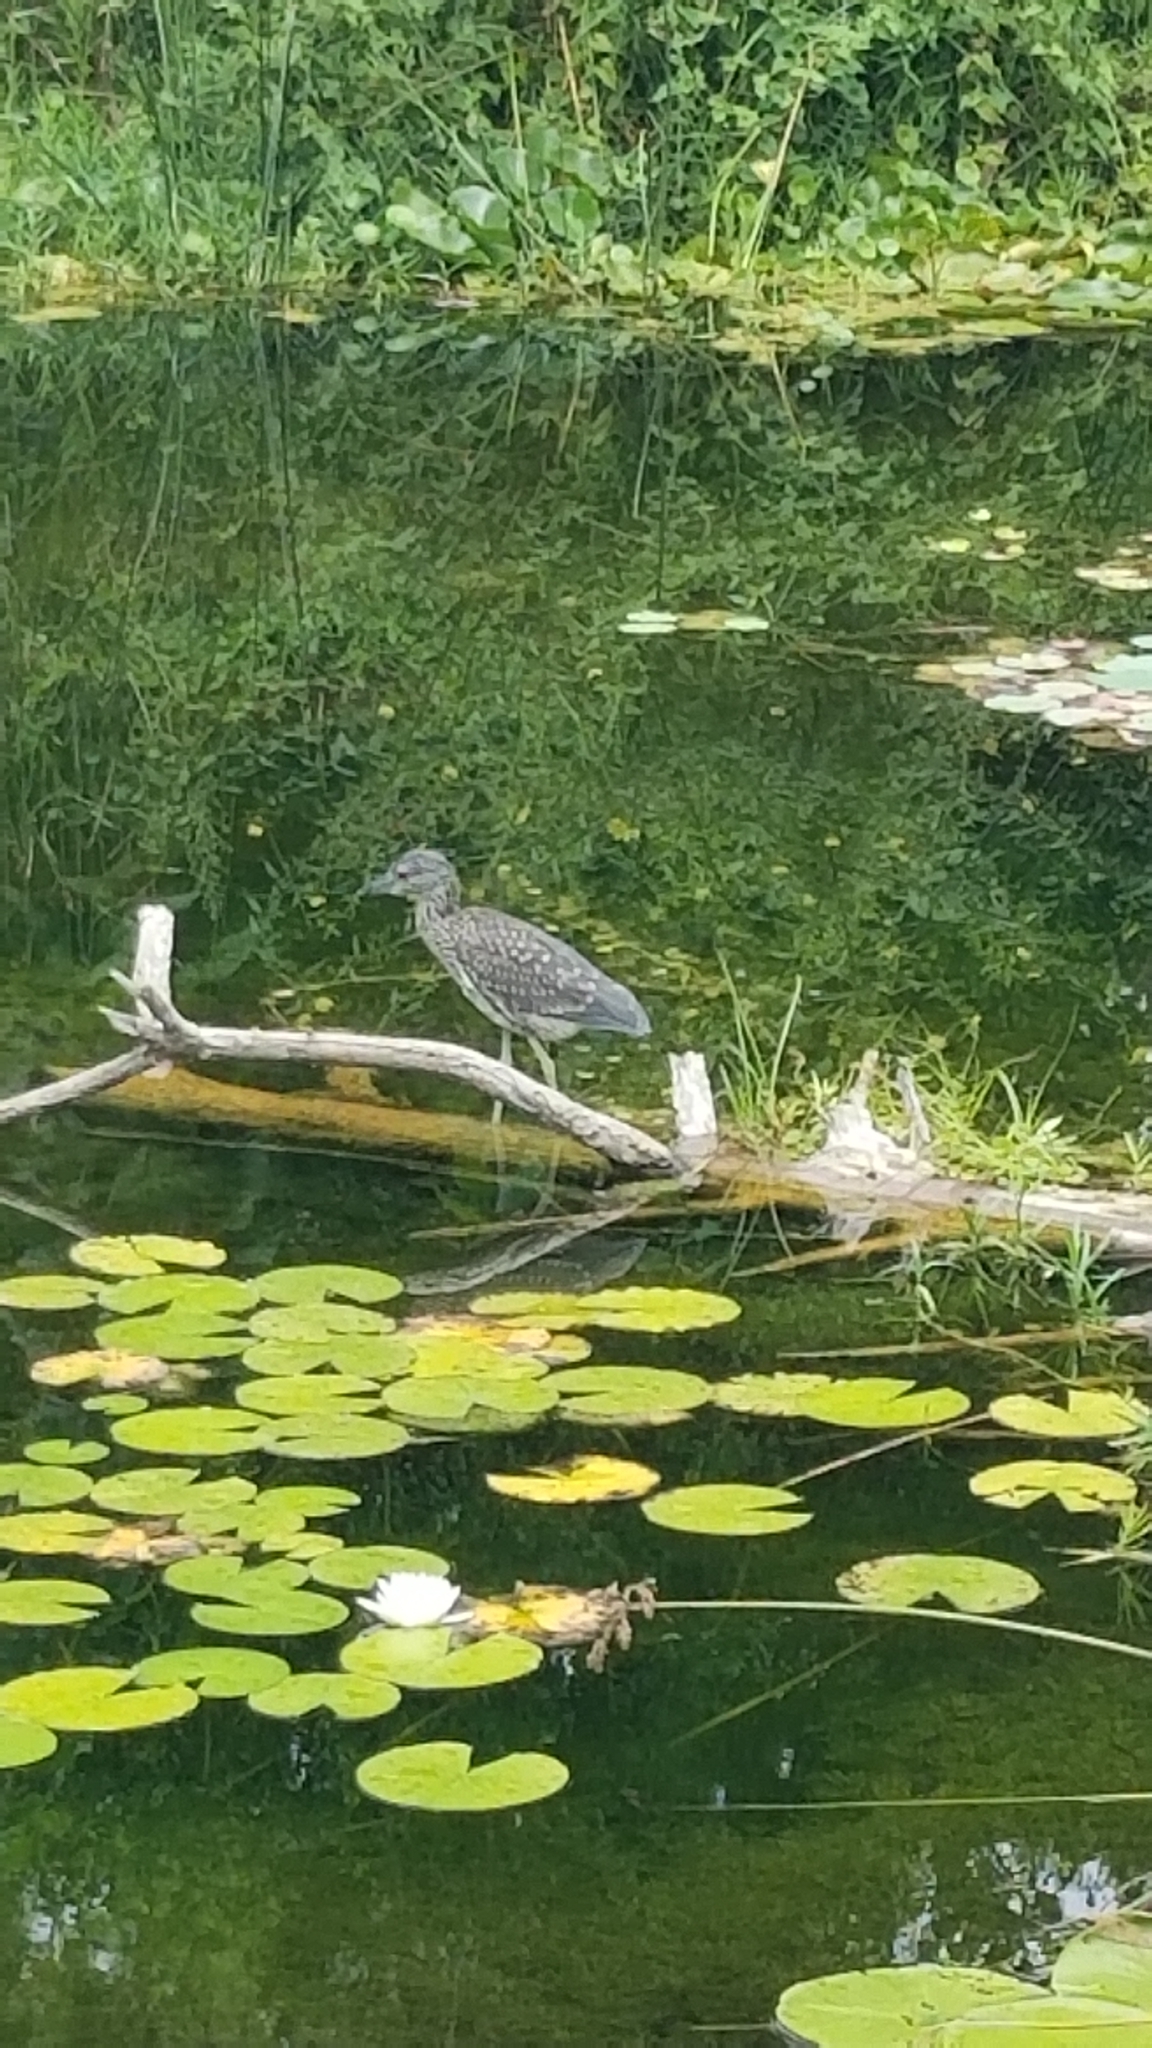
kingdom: Animalia
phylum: Chordata
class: Aves
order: Pelecaniformes
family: Ardeidae
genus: Nyctanassa
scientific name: Nyctanassa violacea
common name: Yellow-crowned night heron
